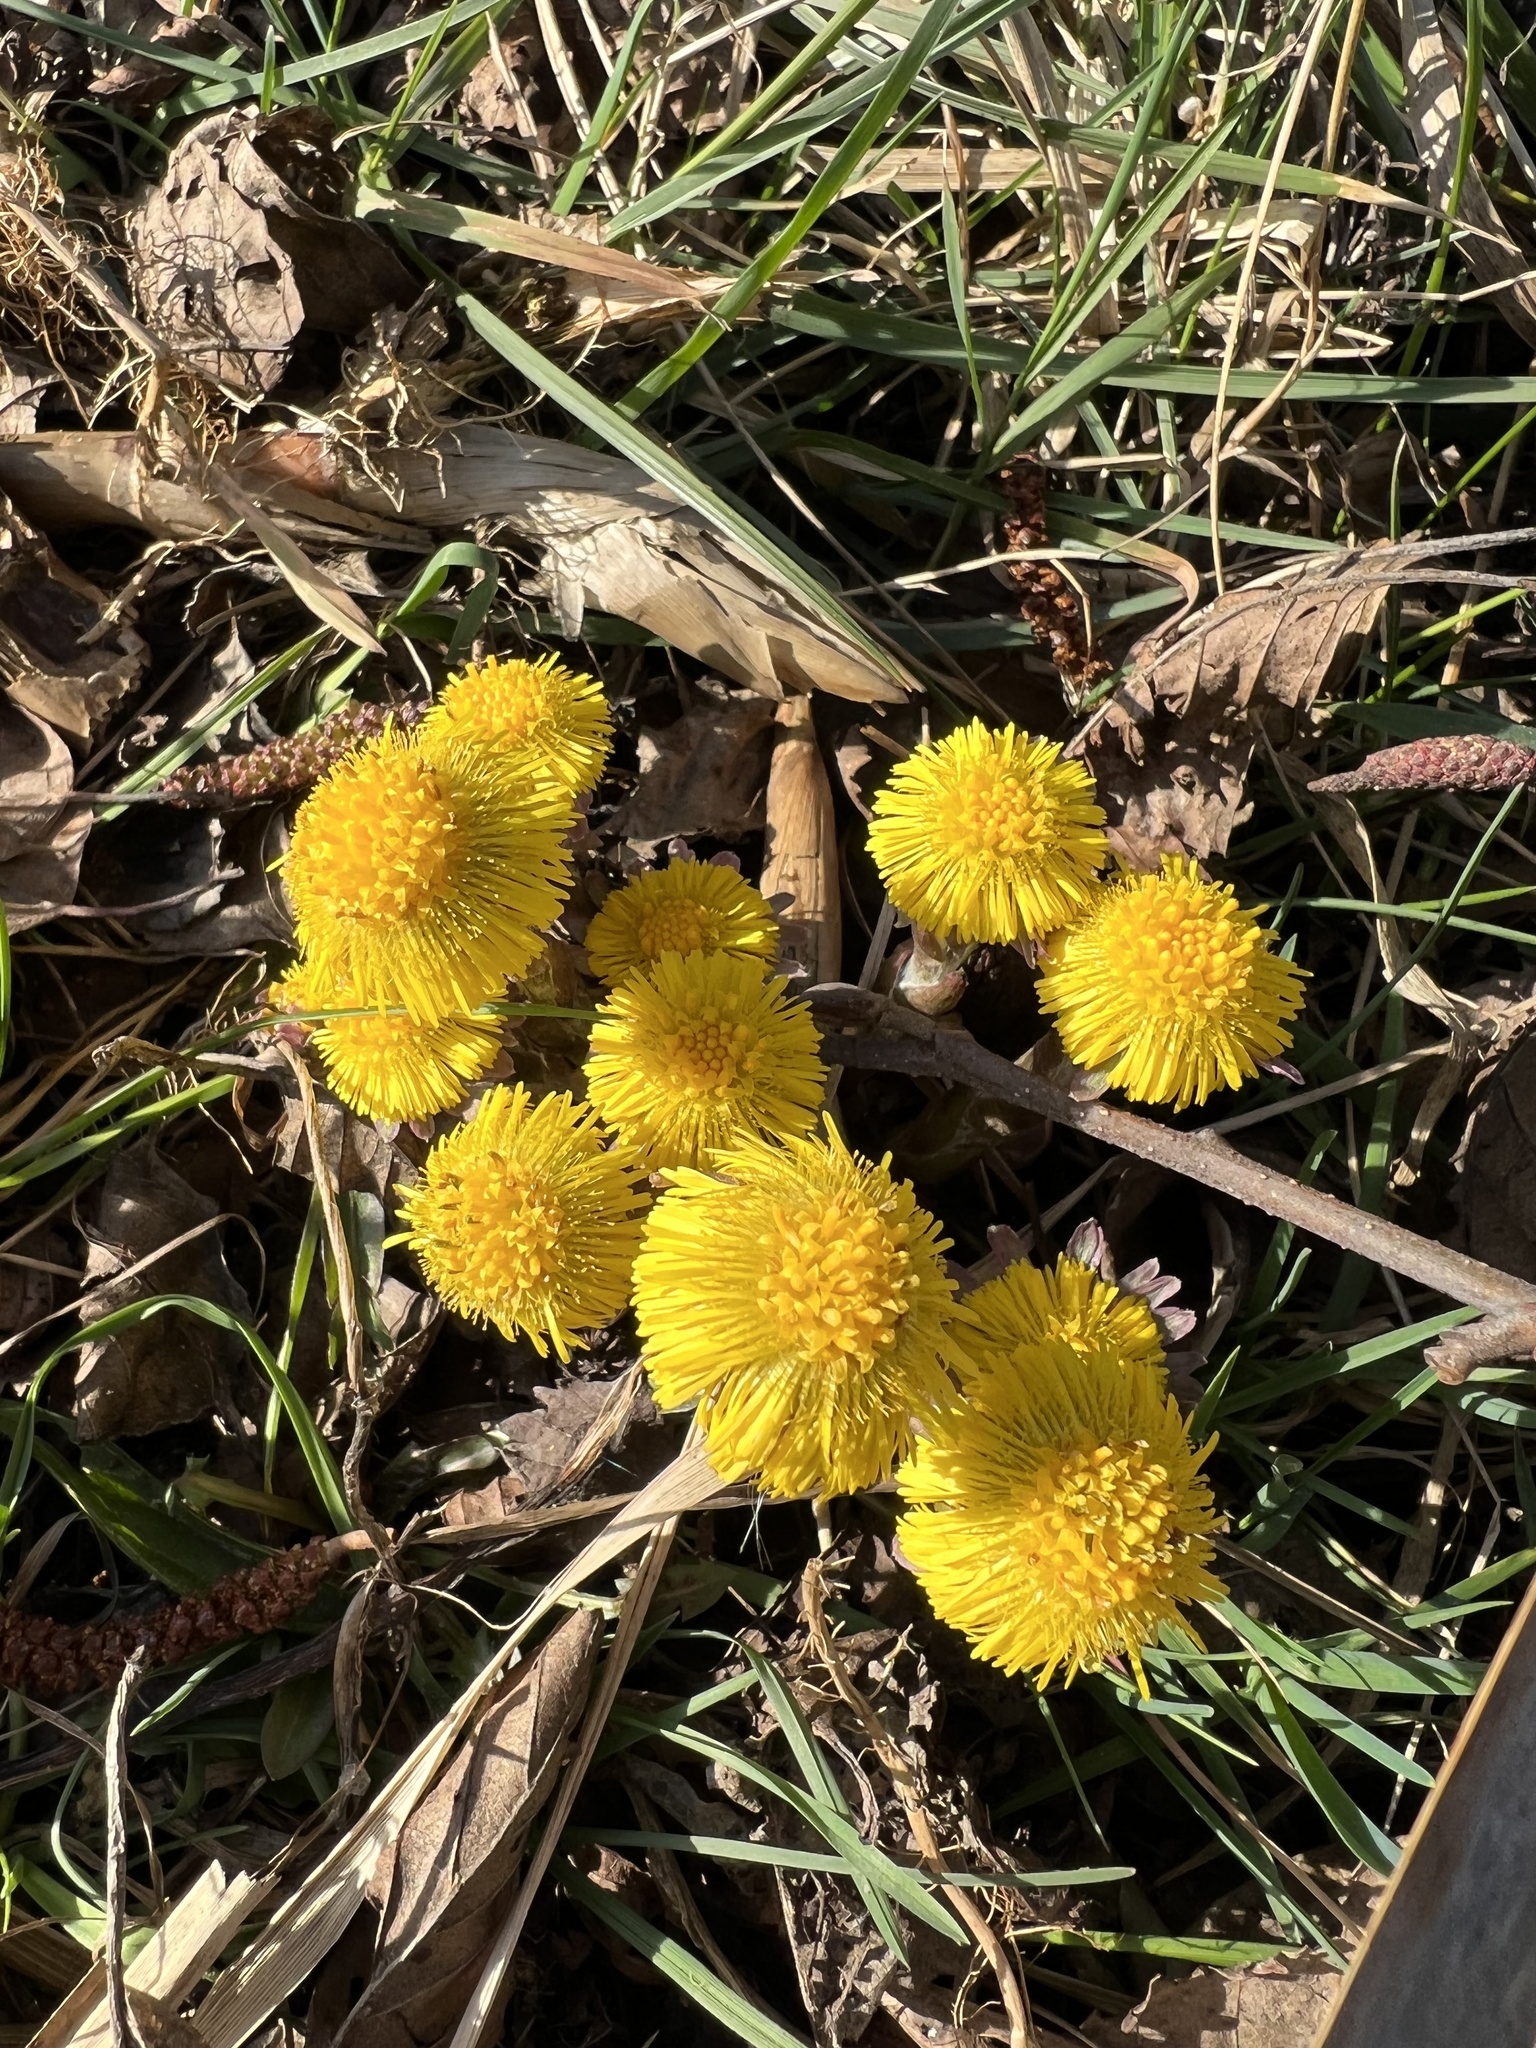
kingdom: Plantae
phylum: Tracheophyta
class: Magnoliopsida
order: Asterales
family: Asteraceae
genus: Tussilago
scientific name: Tussilago farfara
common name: Coltsfoot
